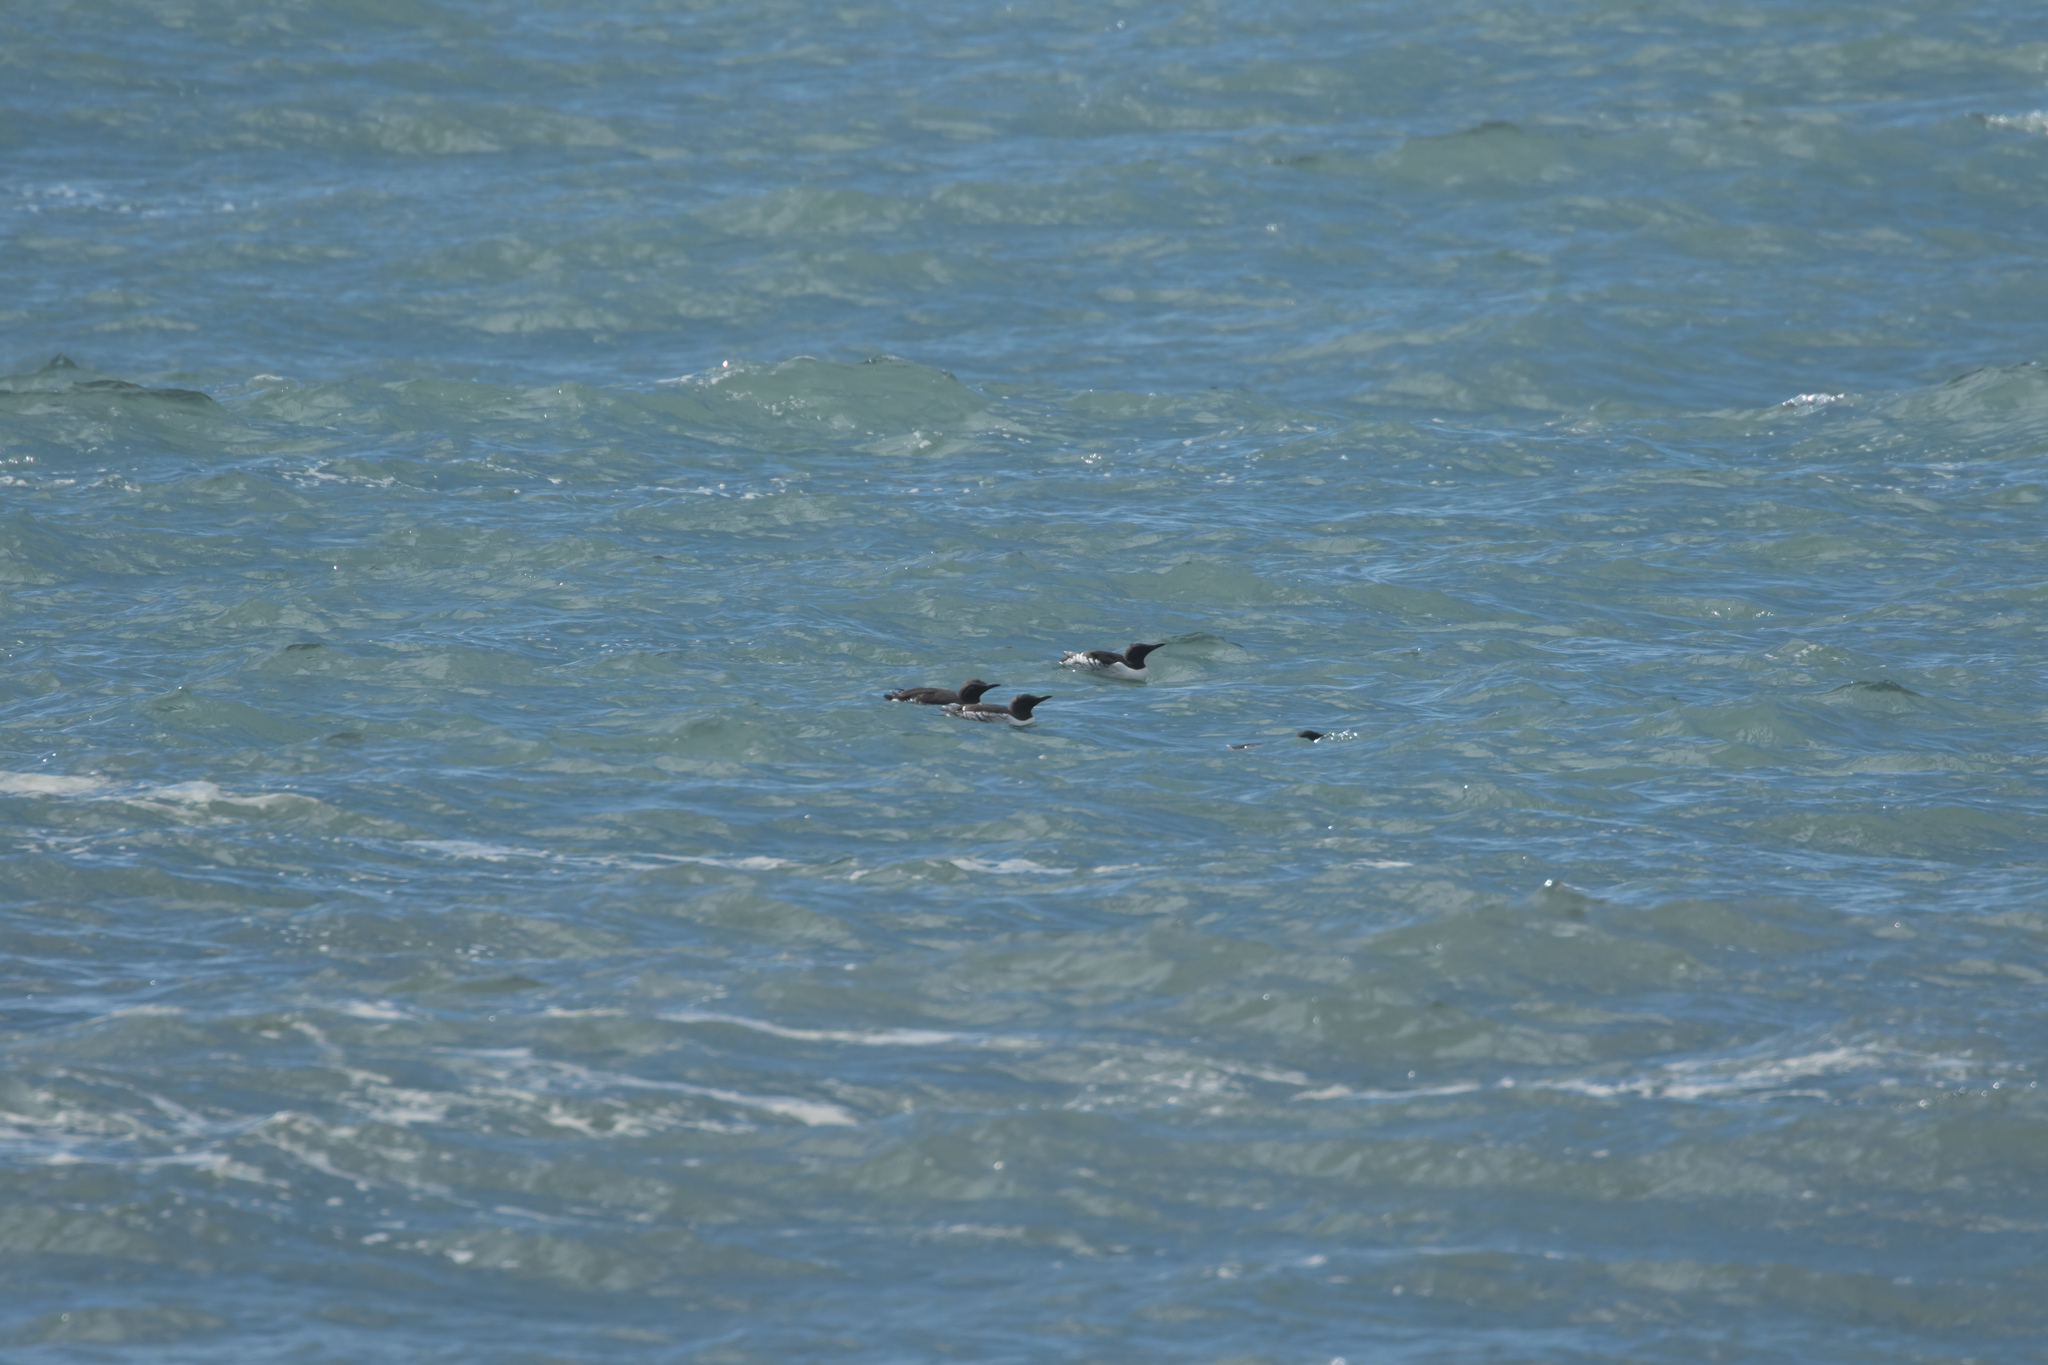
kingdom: Animalia
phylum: Chordata
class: Aves
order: Charadriiformes
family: Alcidae
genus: Uria
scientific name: Uria aalge
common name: Common murre
